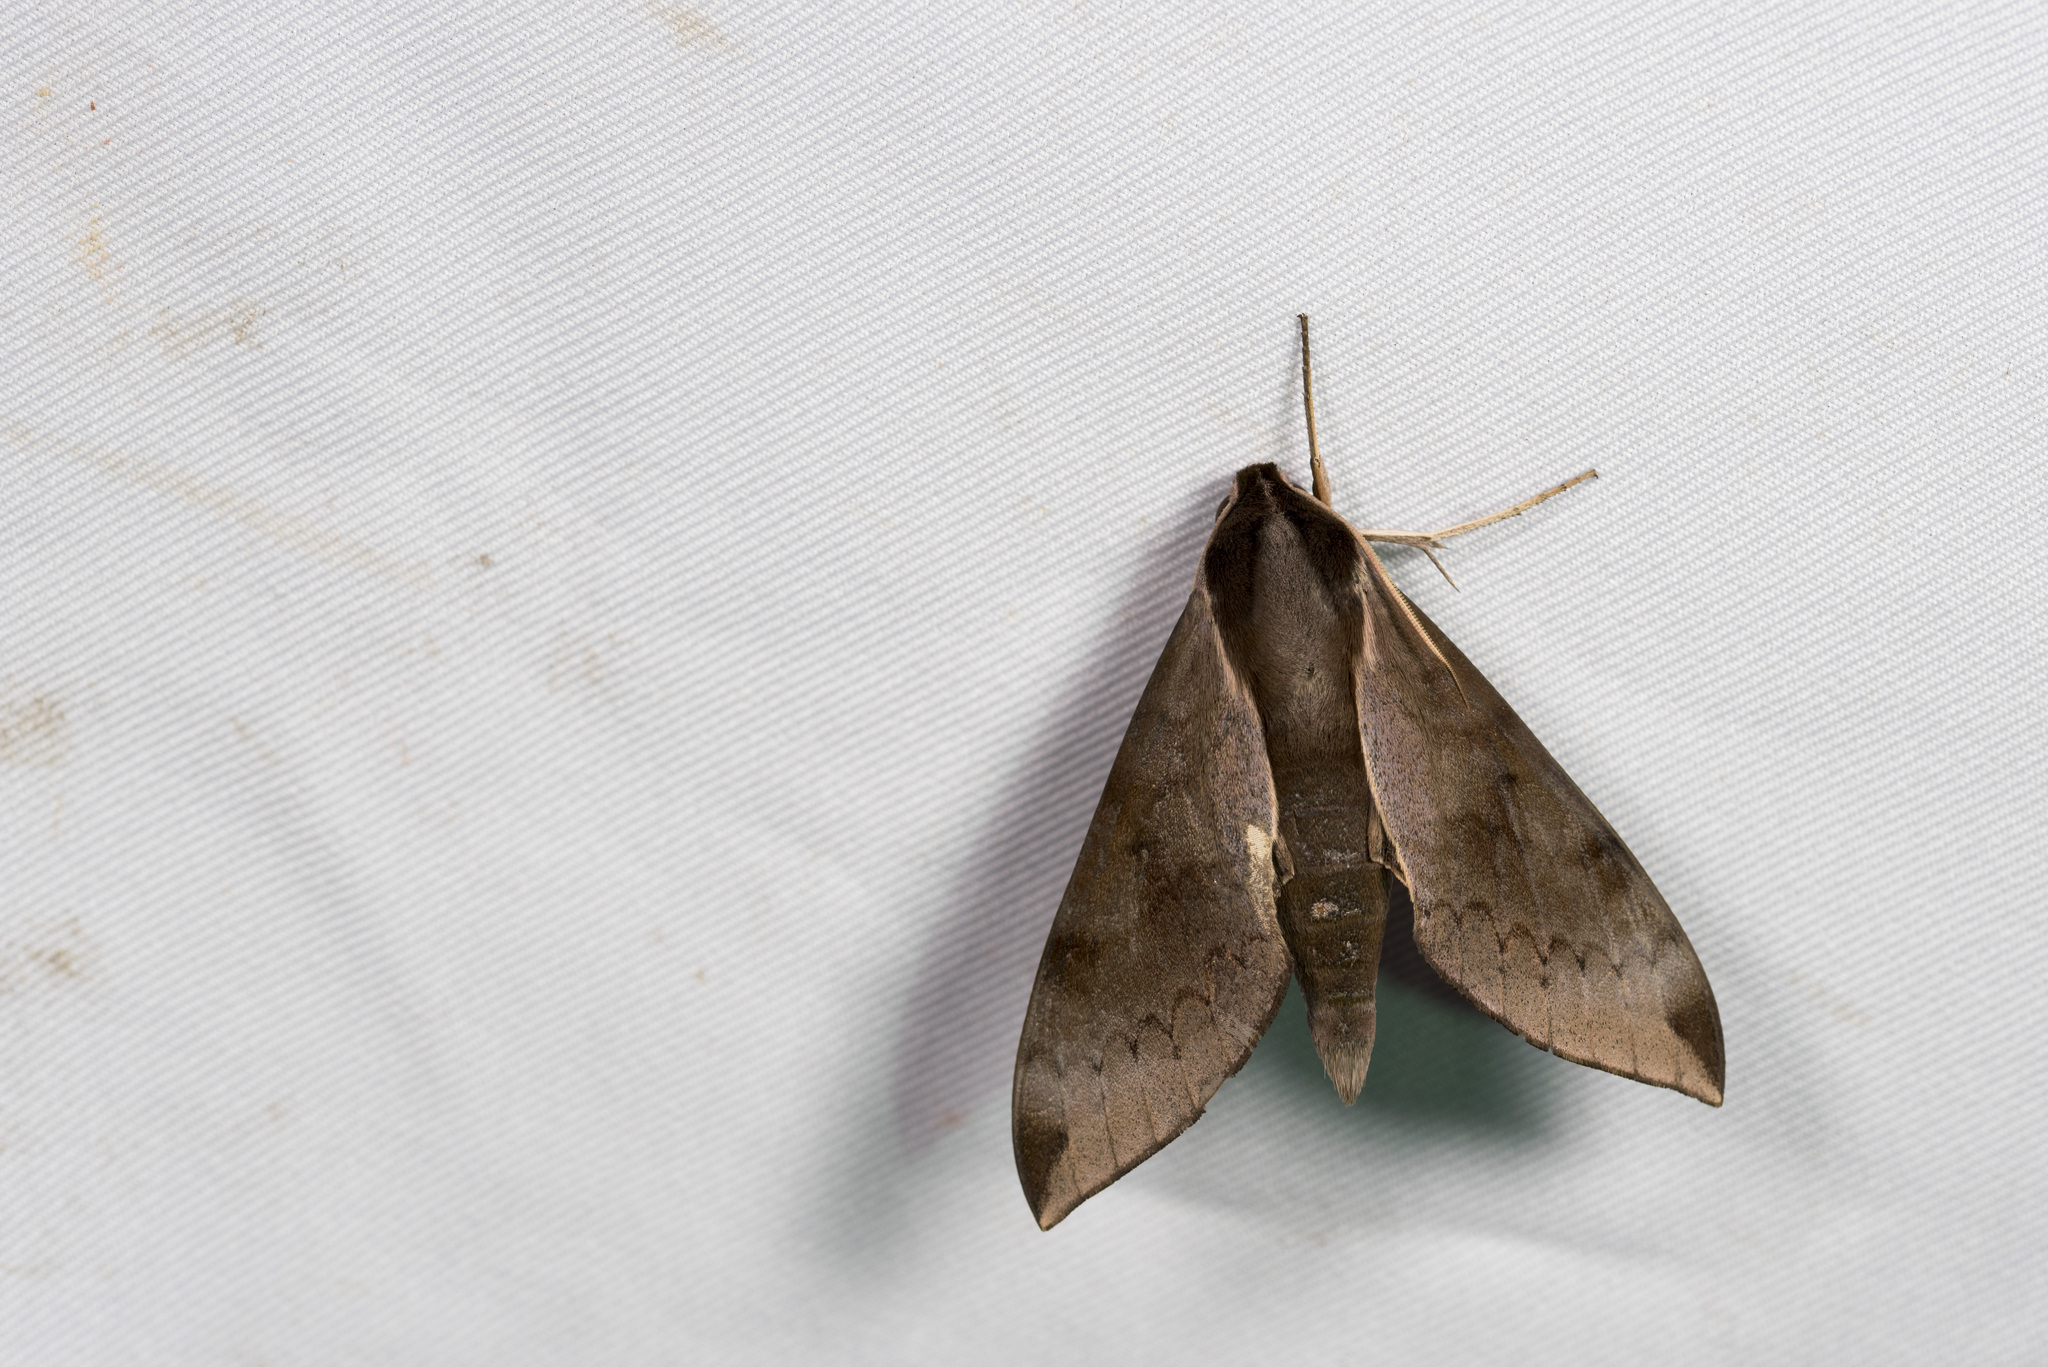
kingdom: Animalia
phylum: Arthropoda
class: Insecta
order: Lepidoptera
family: Sphingidae
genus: Acosmerycoides
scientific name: Acosmerycoides harterti
